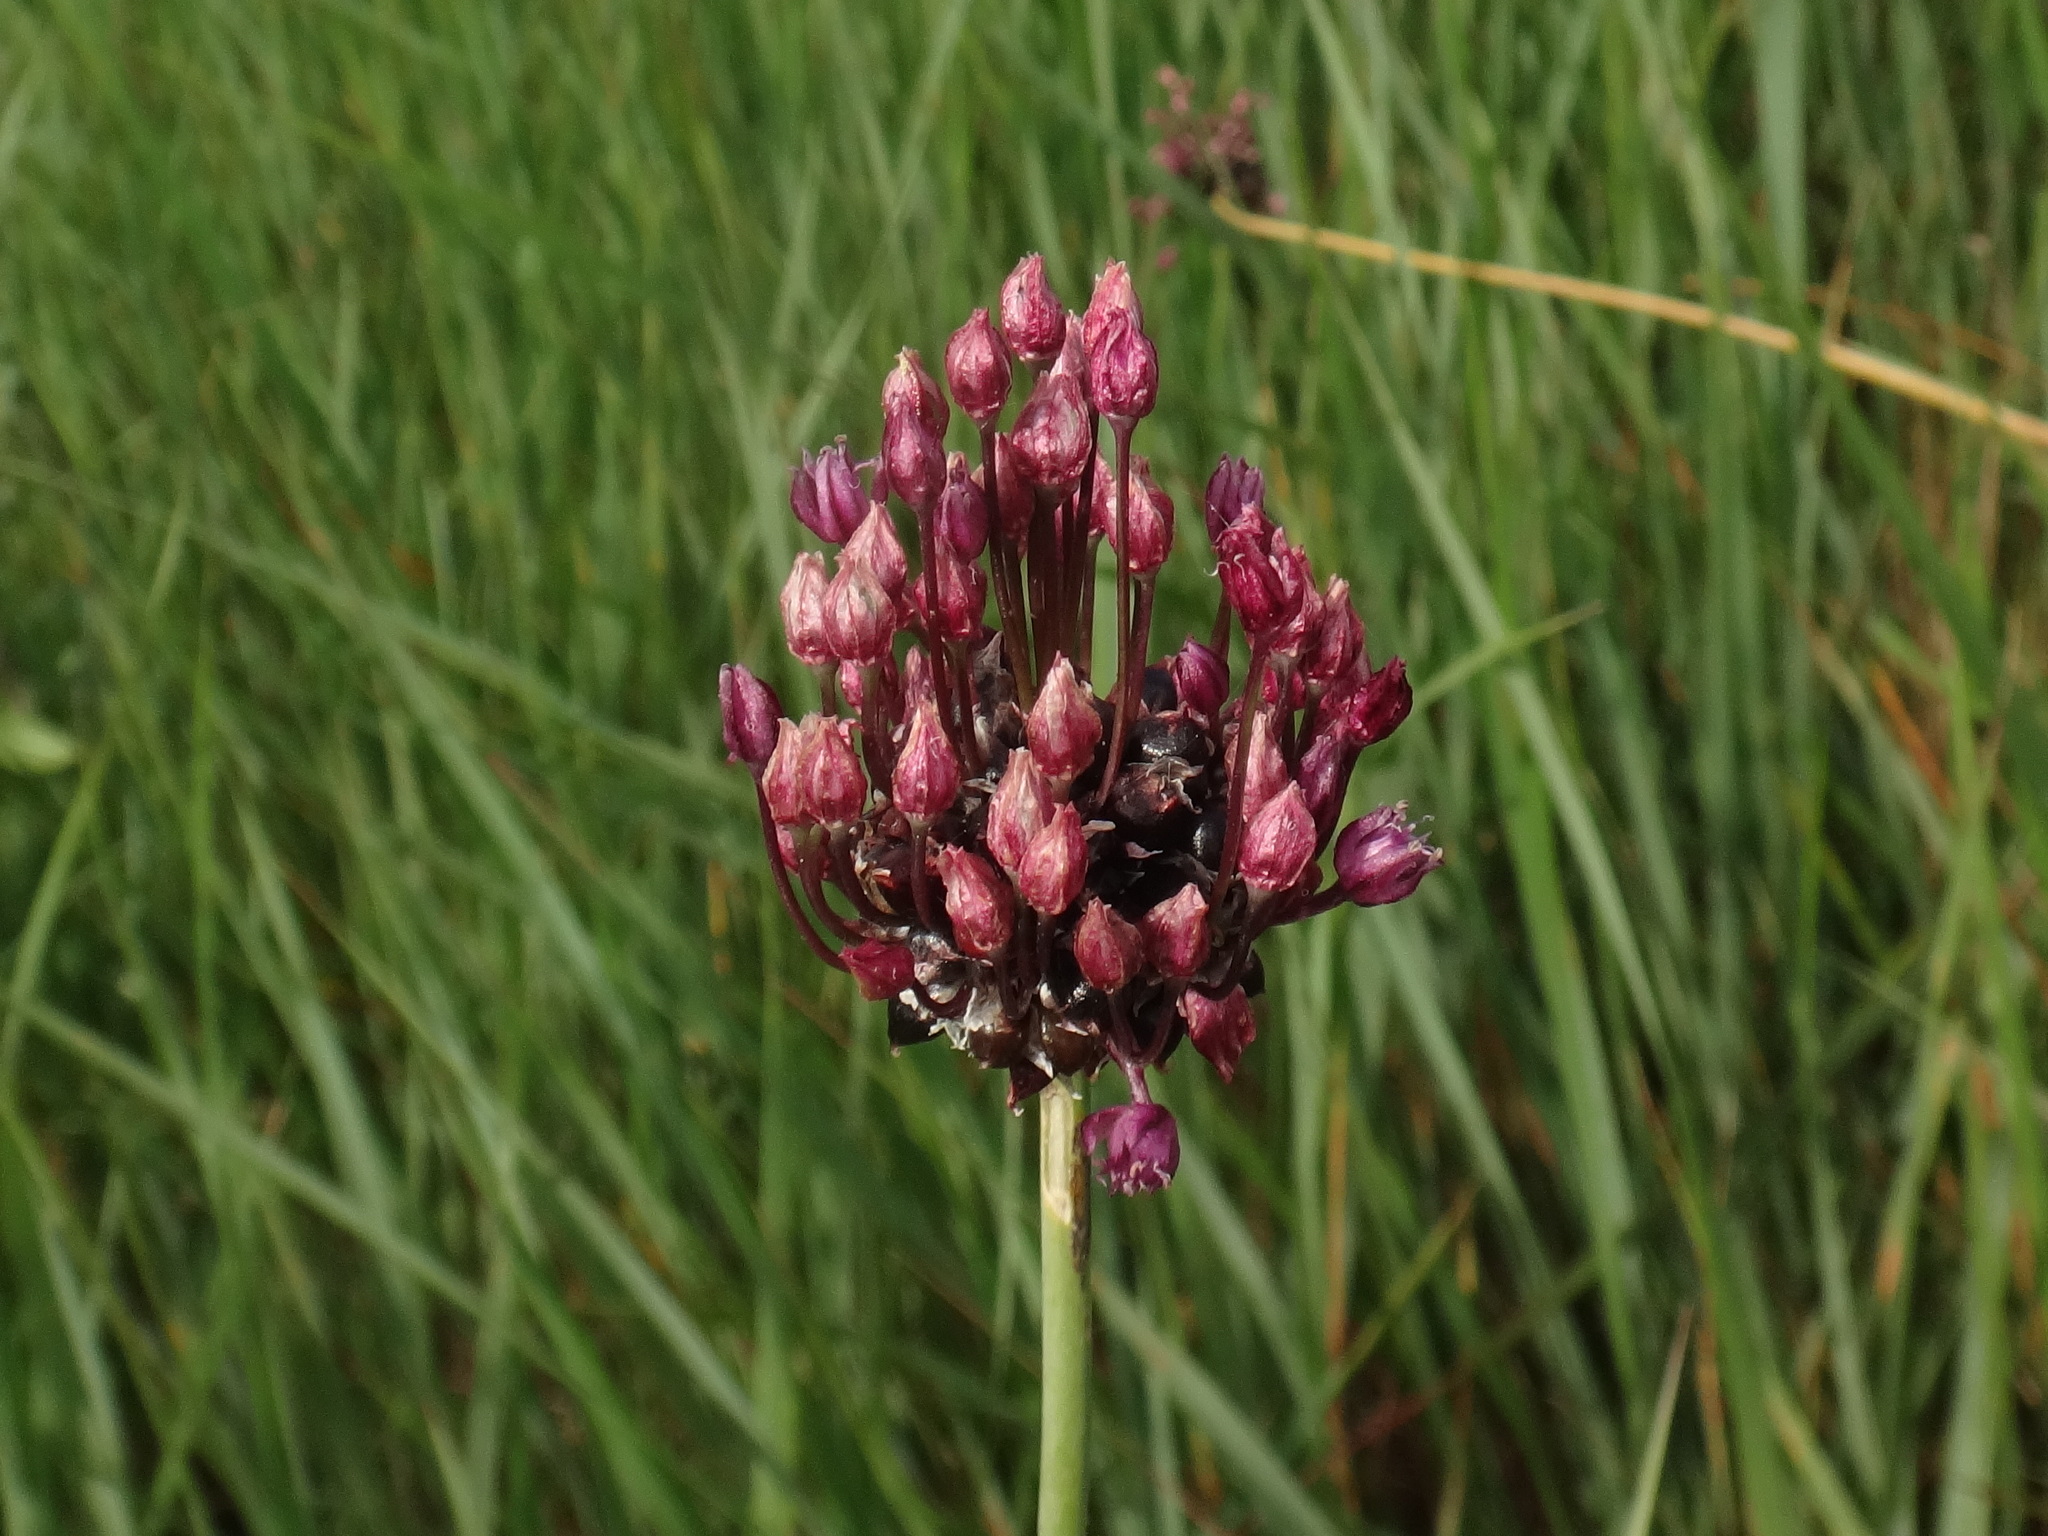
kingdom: Plantae
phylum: Tracheophyta
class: Liliopsida
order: Asparagales
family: Amaryllidaceae
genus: Allium
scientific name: Allium scorodoprasum
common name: Sand leek
